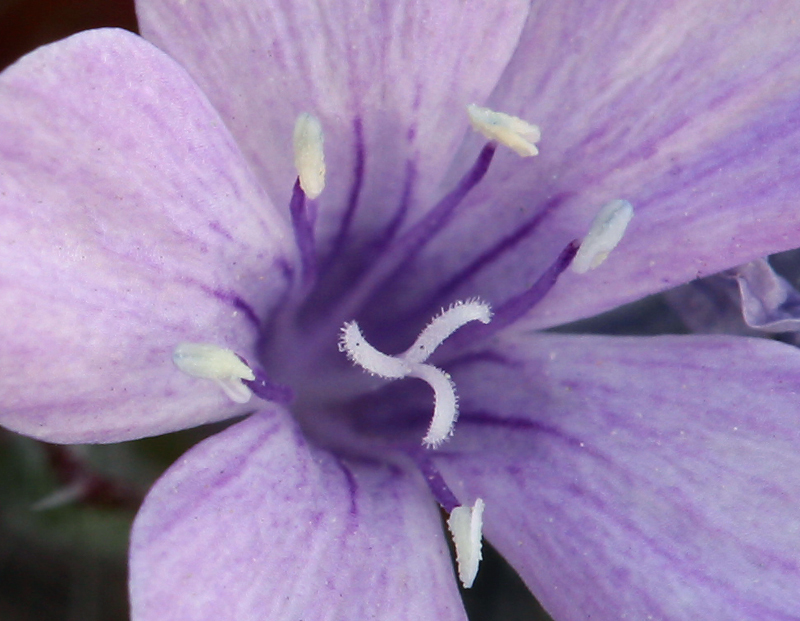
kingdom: Plantae
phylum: Tracheophyta
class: Magnoliopsida
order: Ericales
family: Polemoniaceae
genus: Langloisia
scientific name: Langloisia setosissima
